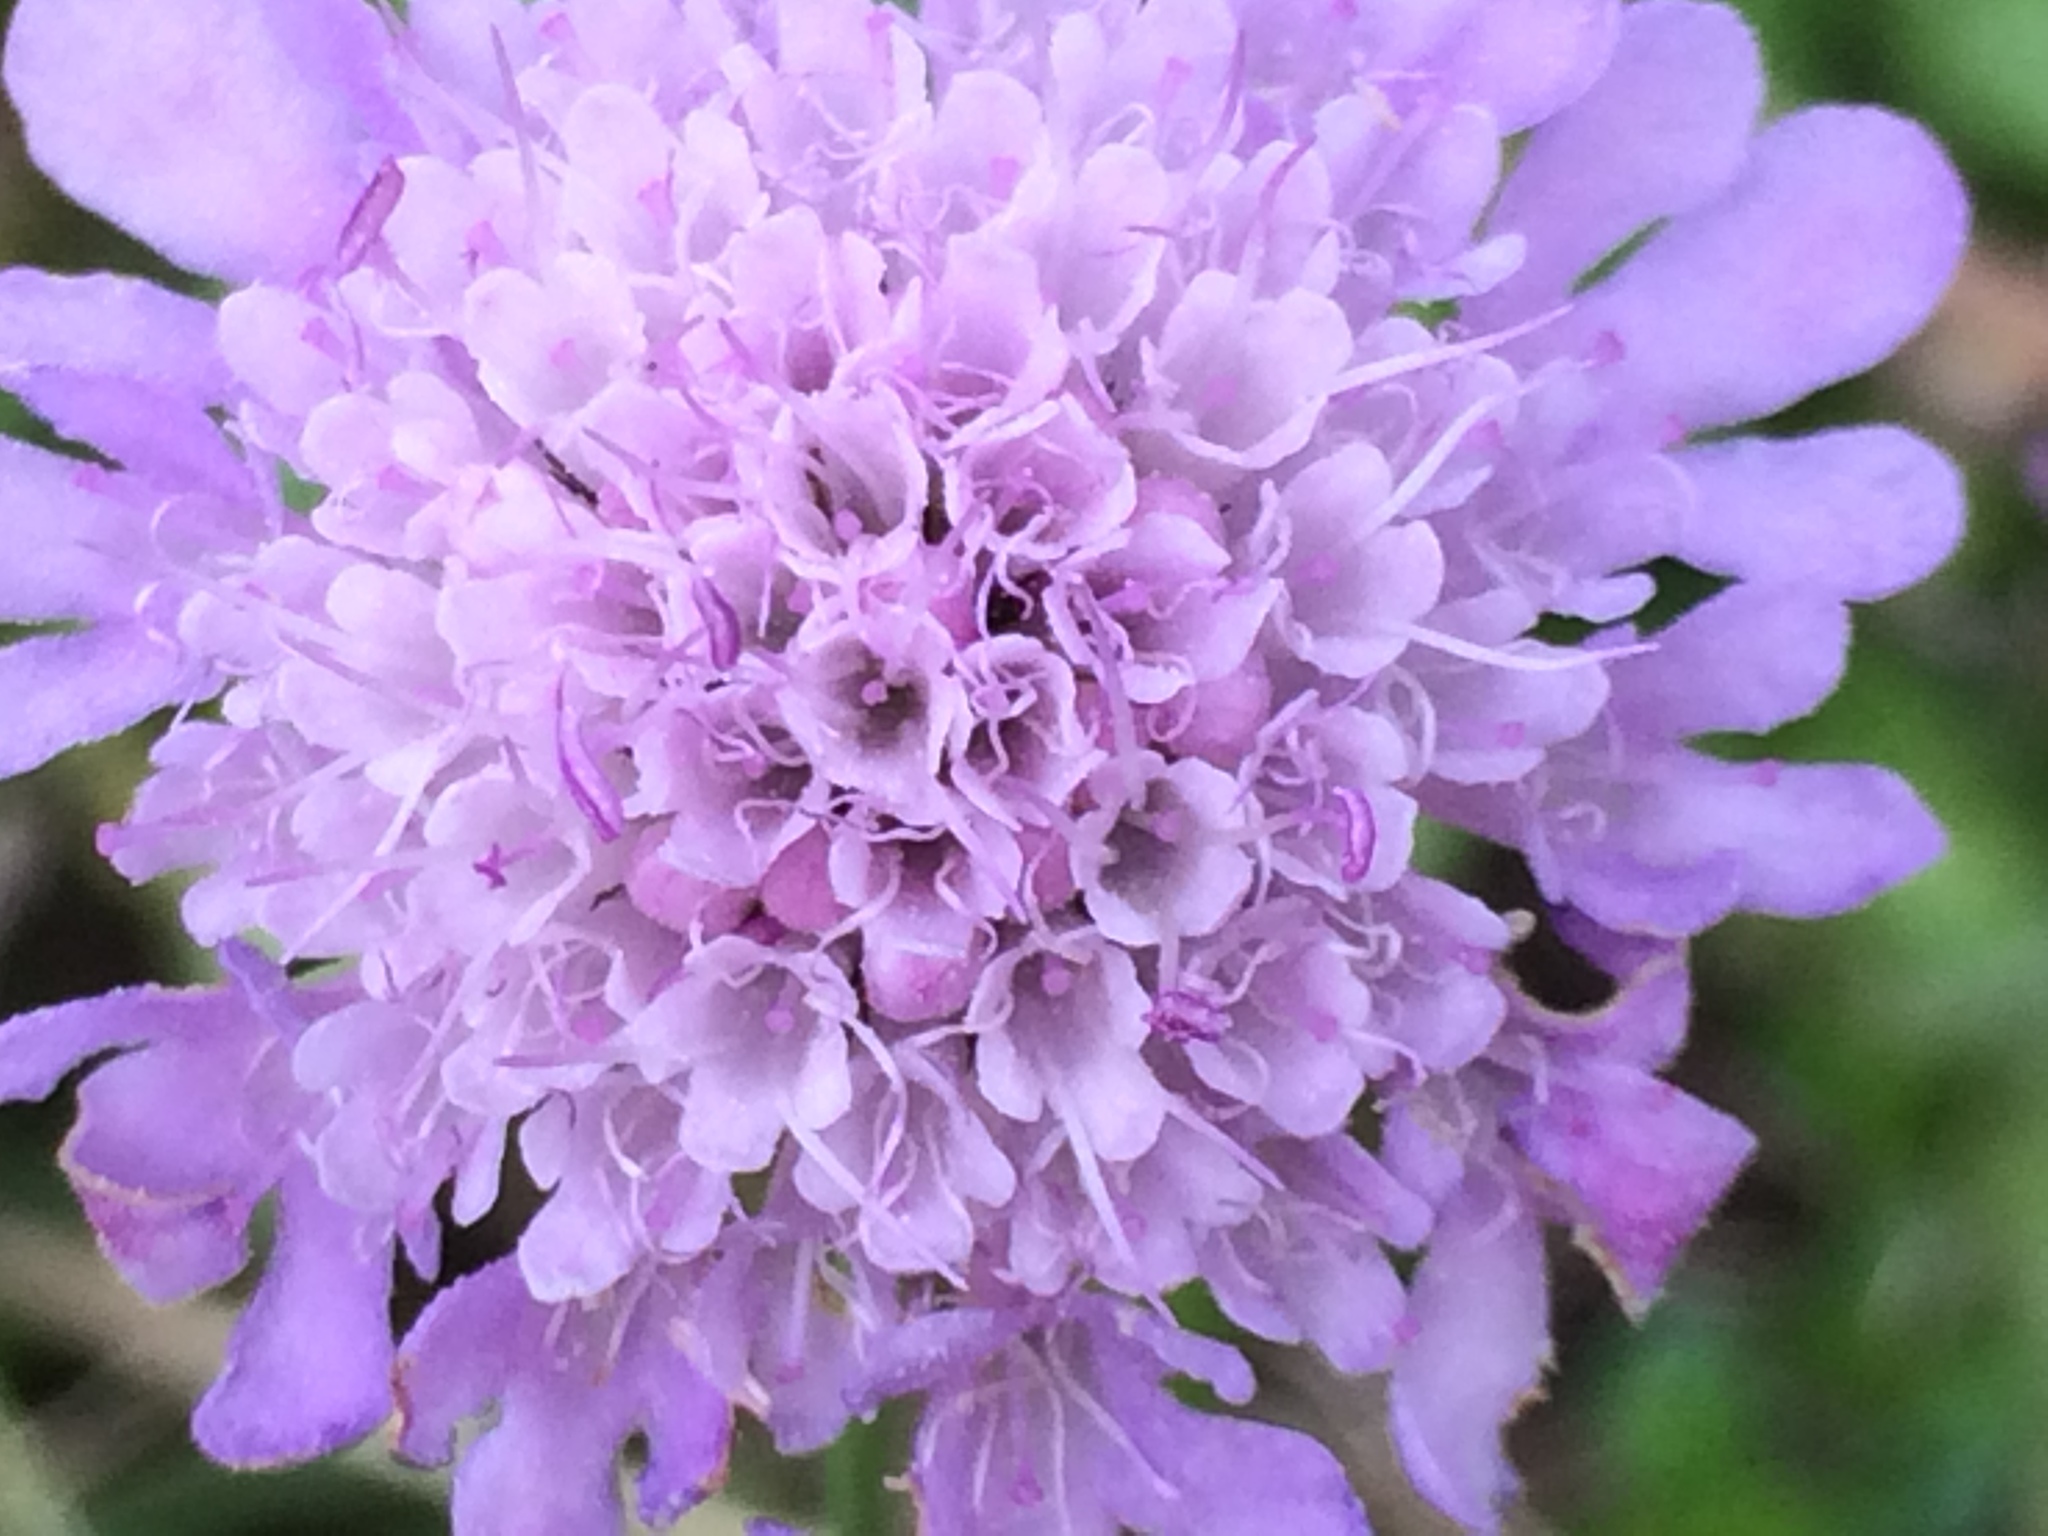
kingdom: Plantae
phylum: Tracheophyta
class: Magnoliopsida
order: Dipsacales
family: Caprifoliaceae
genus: Knautia
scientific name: Knautia dipsacifolia
